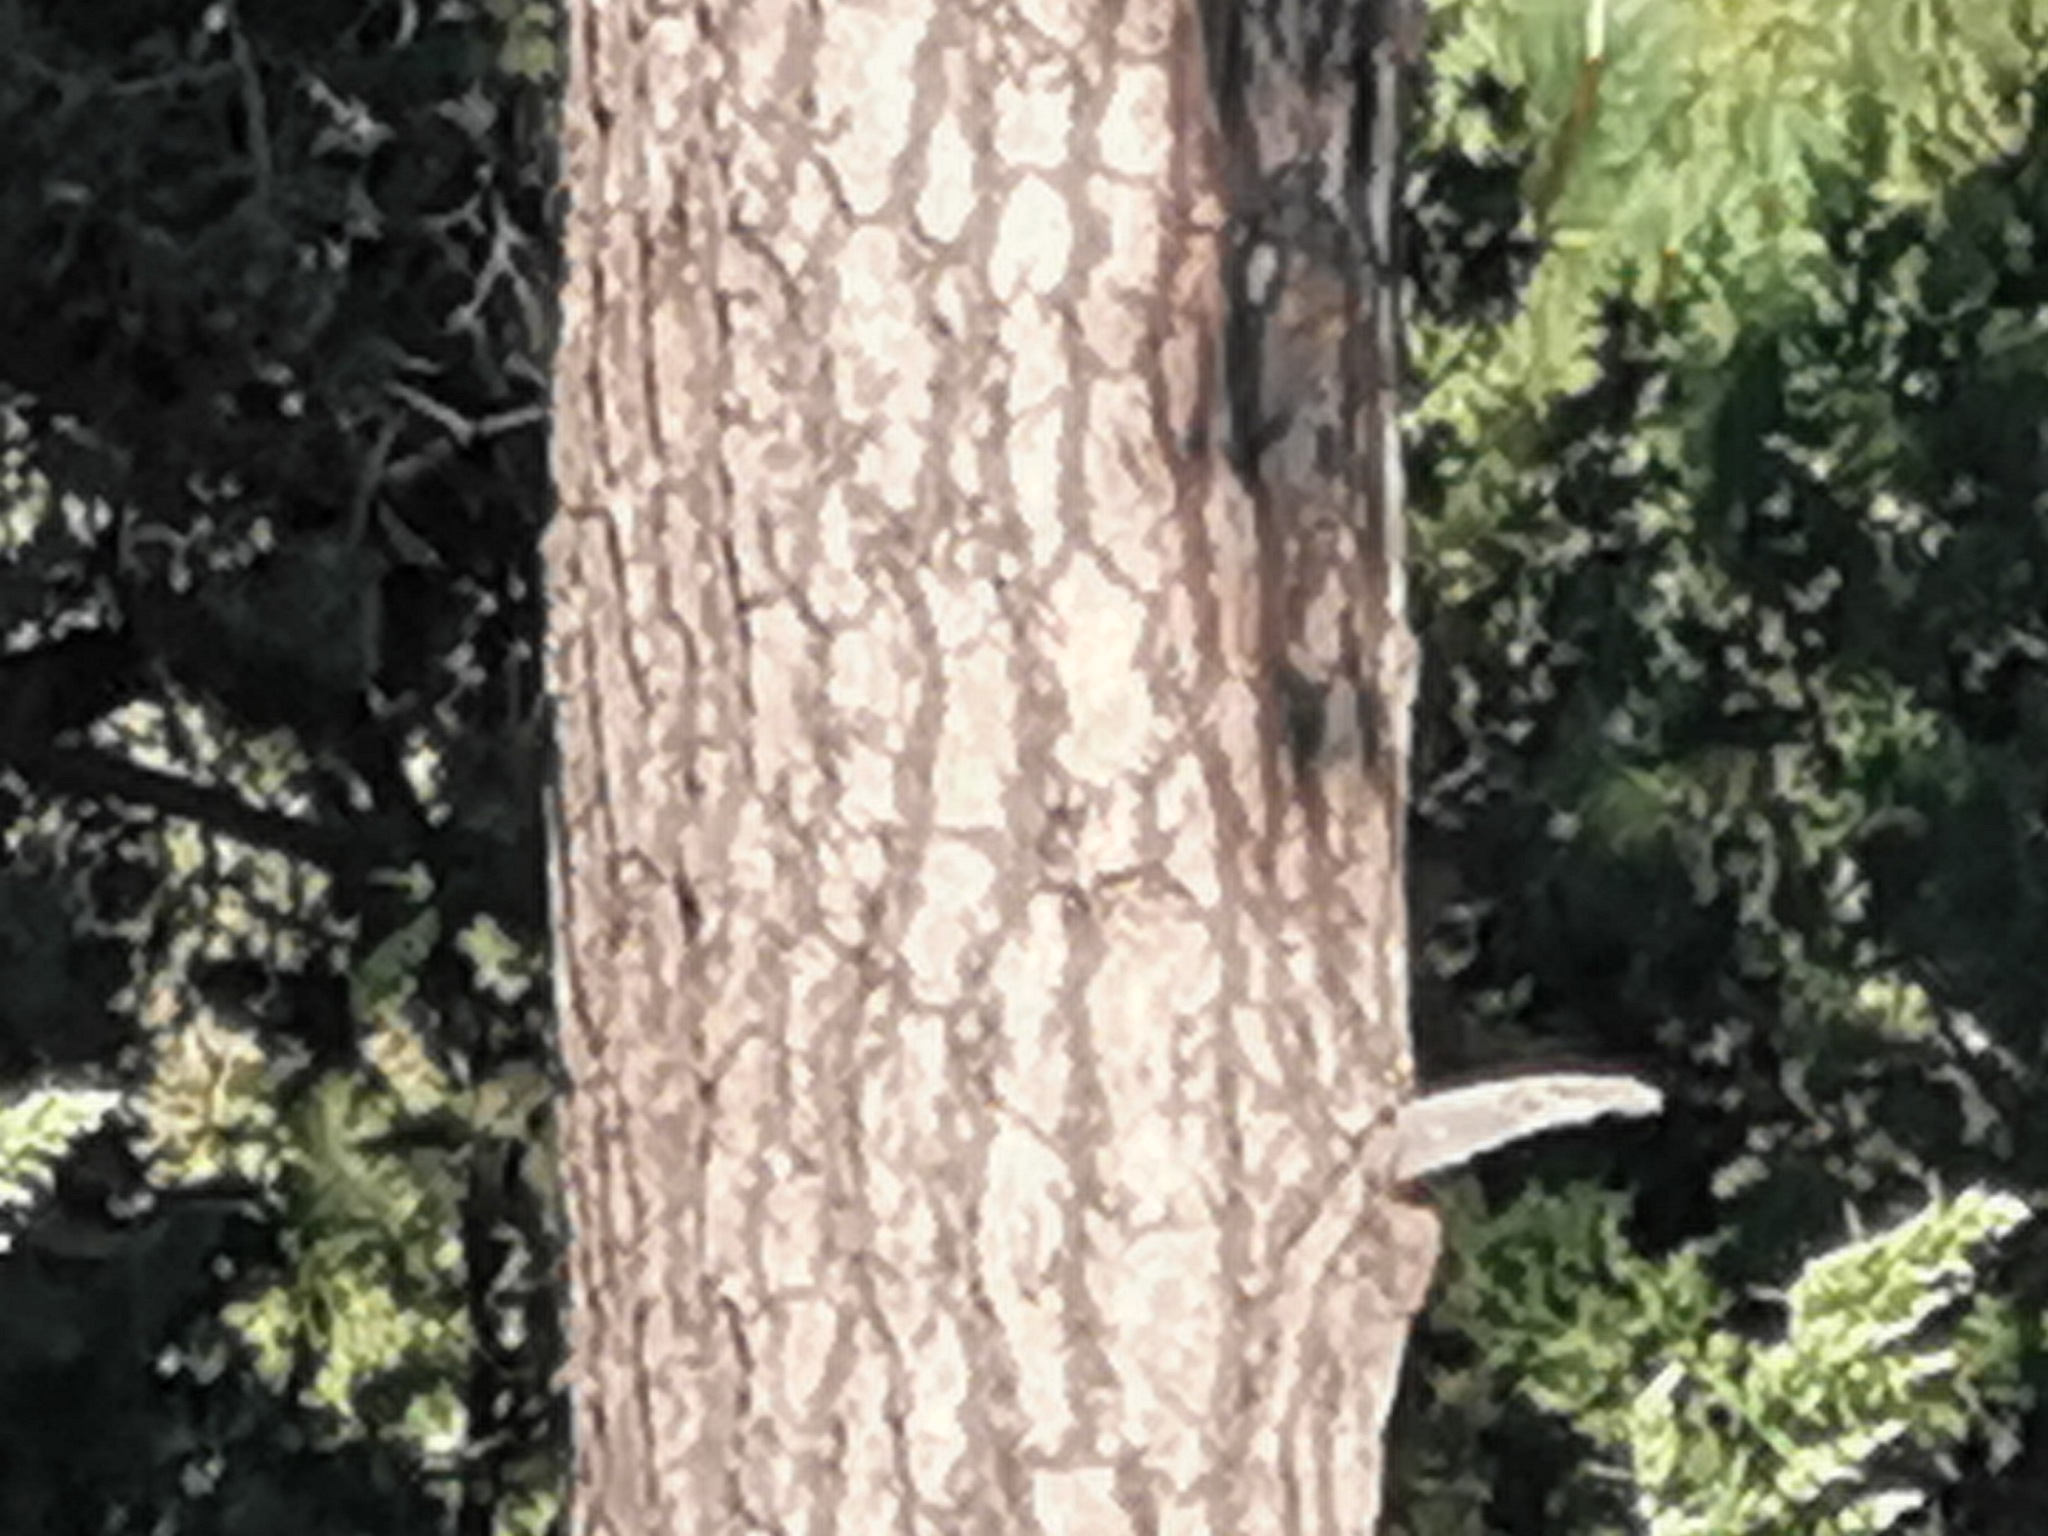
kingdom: Plantae
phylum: Tracheophyta
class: Pinopsida
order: Pinales
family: Pinaceae
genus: Pinus
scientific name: Pinus engelmannii
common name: Apache pine
